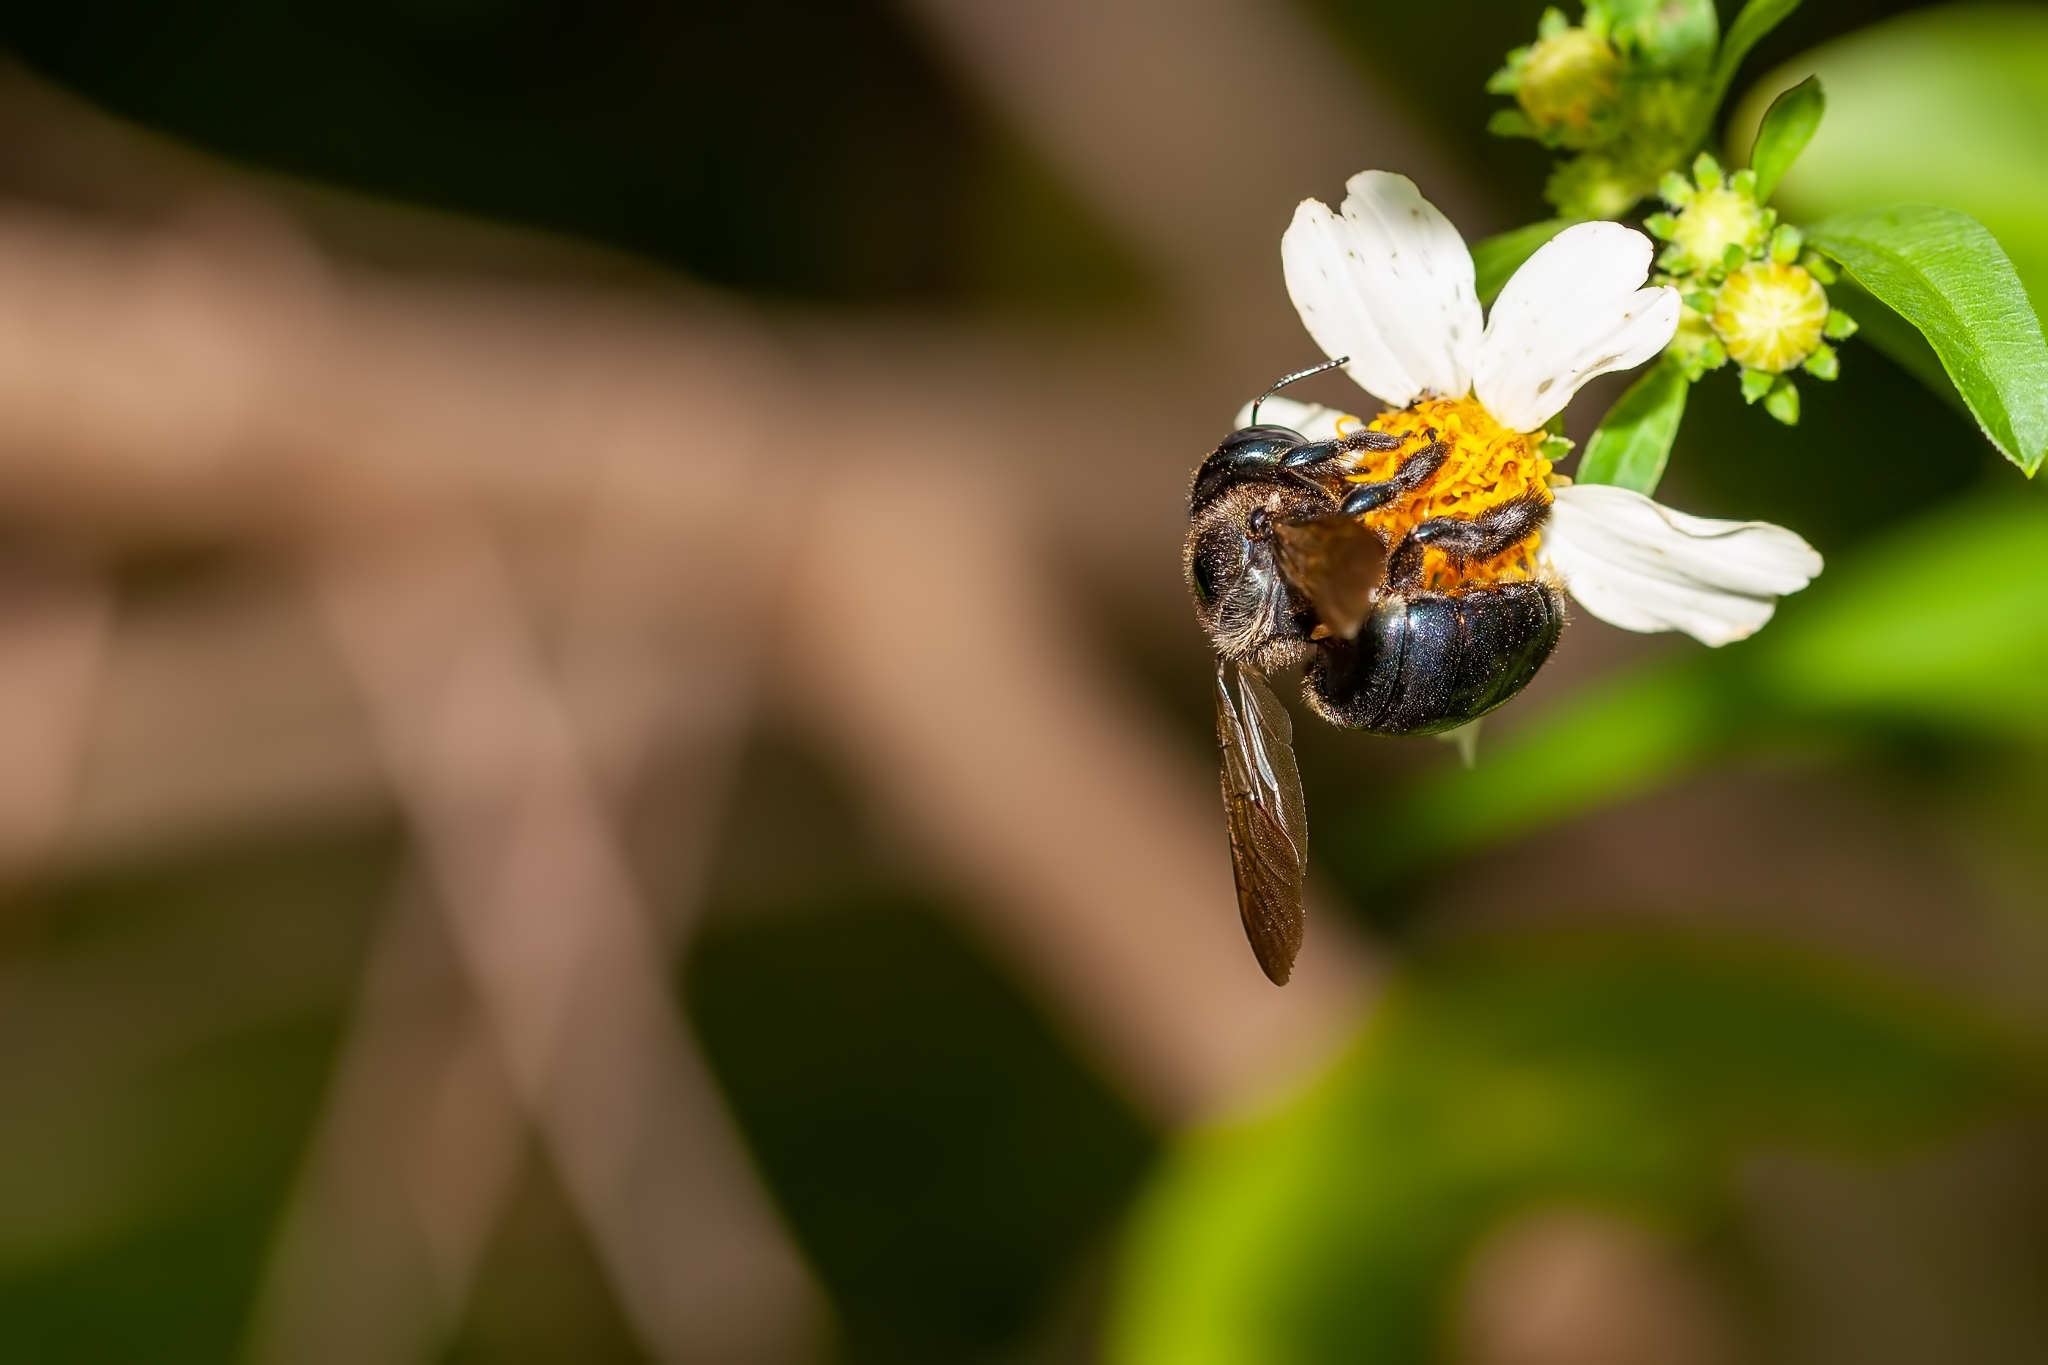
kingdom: Animalia
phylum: Arthropoda
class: Insecta
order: Hymenoptera
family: Apidae
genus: Xylocopa
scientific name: Xylocopa virginica
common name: Carpenter bee
